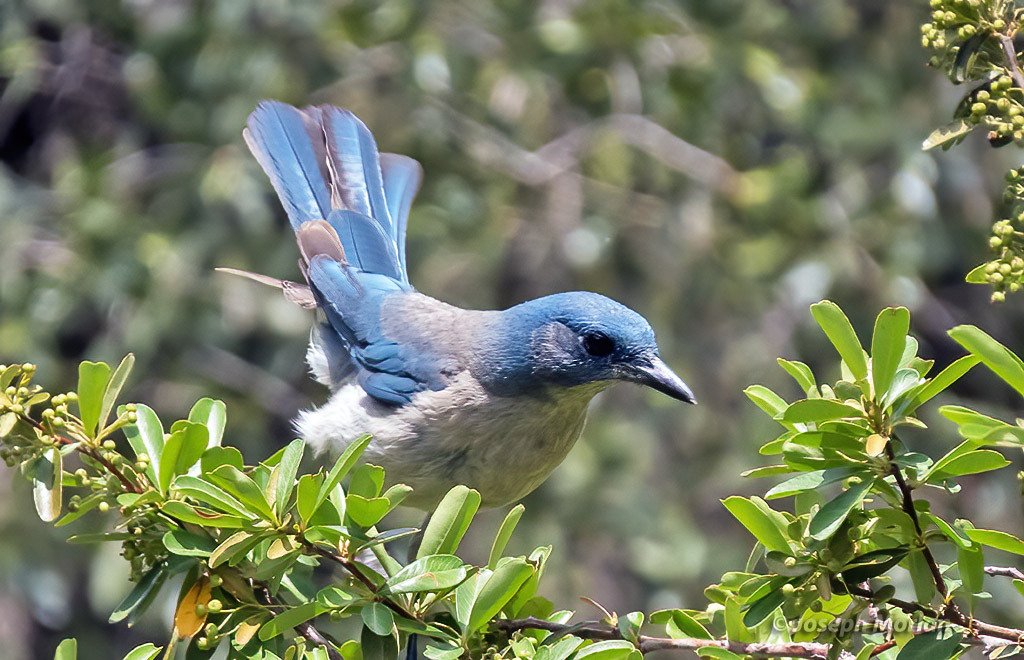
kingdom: Animalia
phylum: Chordata
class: Aves
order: Passeriformes
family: Corvidae
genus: Aphelocoma
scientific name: Aphelocoma wollweberi
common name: Mexican jay
